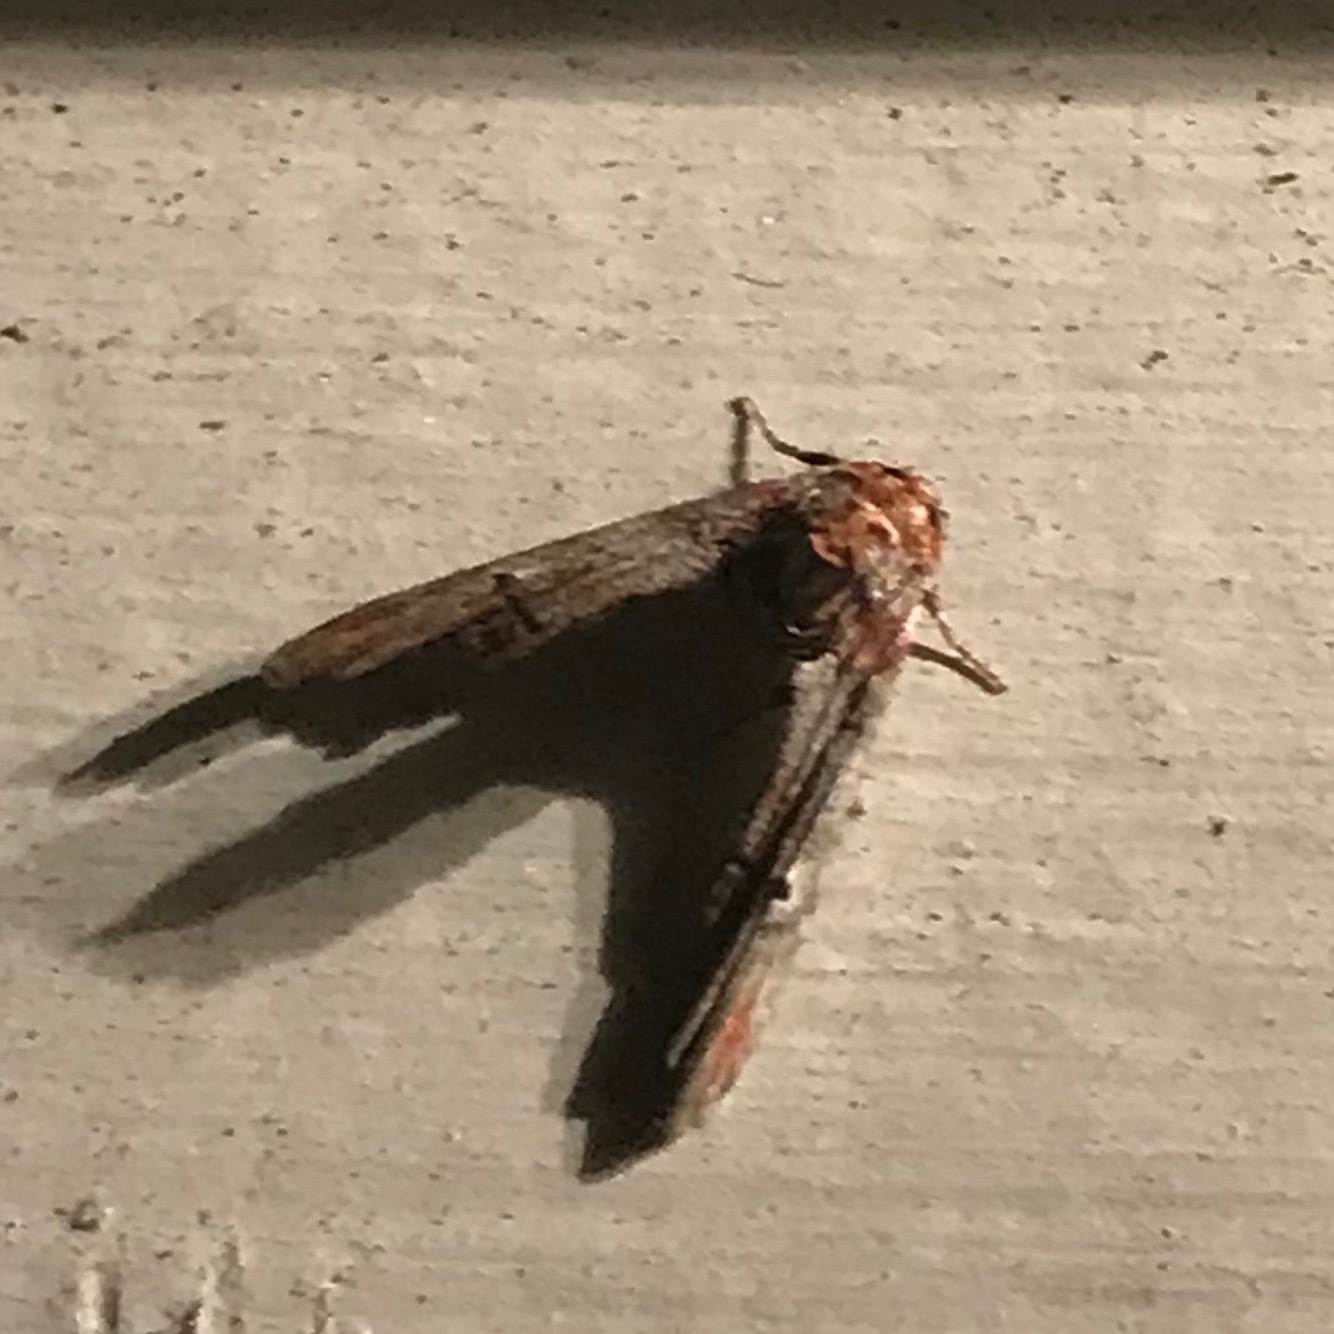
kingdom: Animalia
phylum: Arthropoda
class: Insecta
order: Lepidoptera
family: Euteliidae
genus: Marathyssa
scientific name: Marathyssa inficita
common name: Dark marathyssa moth
